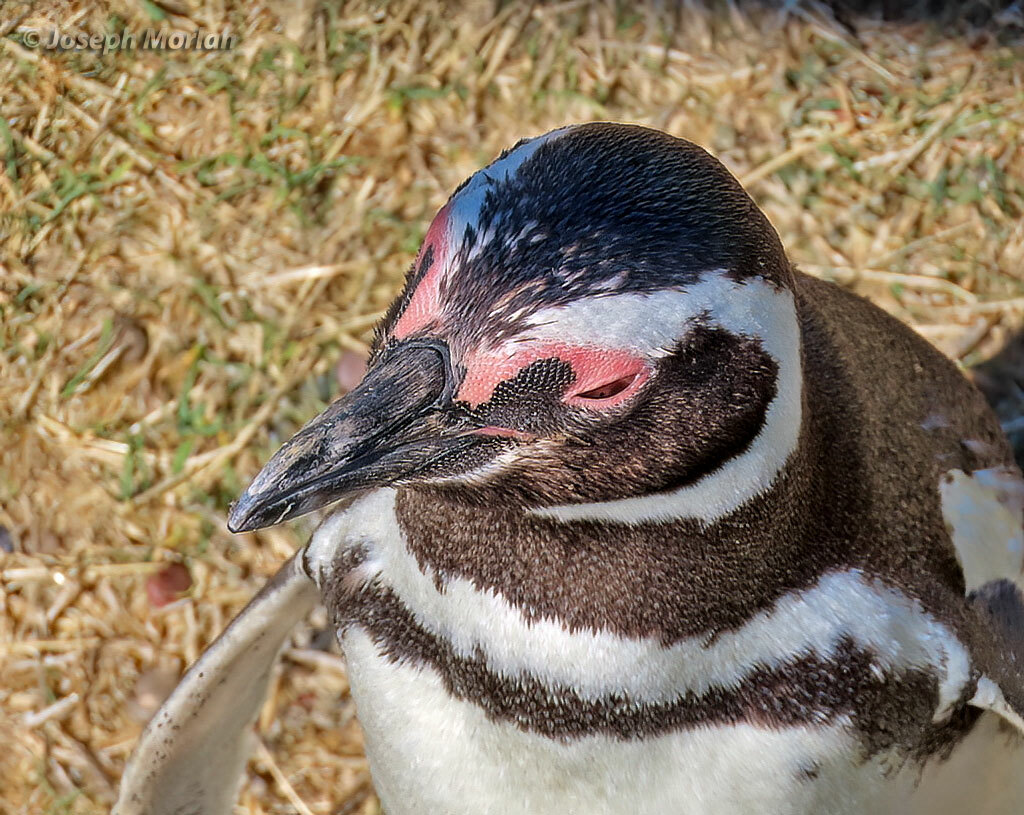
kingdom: Animalia
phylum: Chordata
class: Aves
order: Sphenisciformes
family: Spheniscidae
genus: Spheniscus
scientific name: Spheniscus magellanicus
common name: Magellanic penguin
